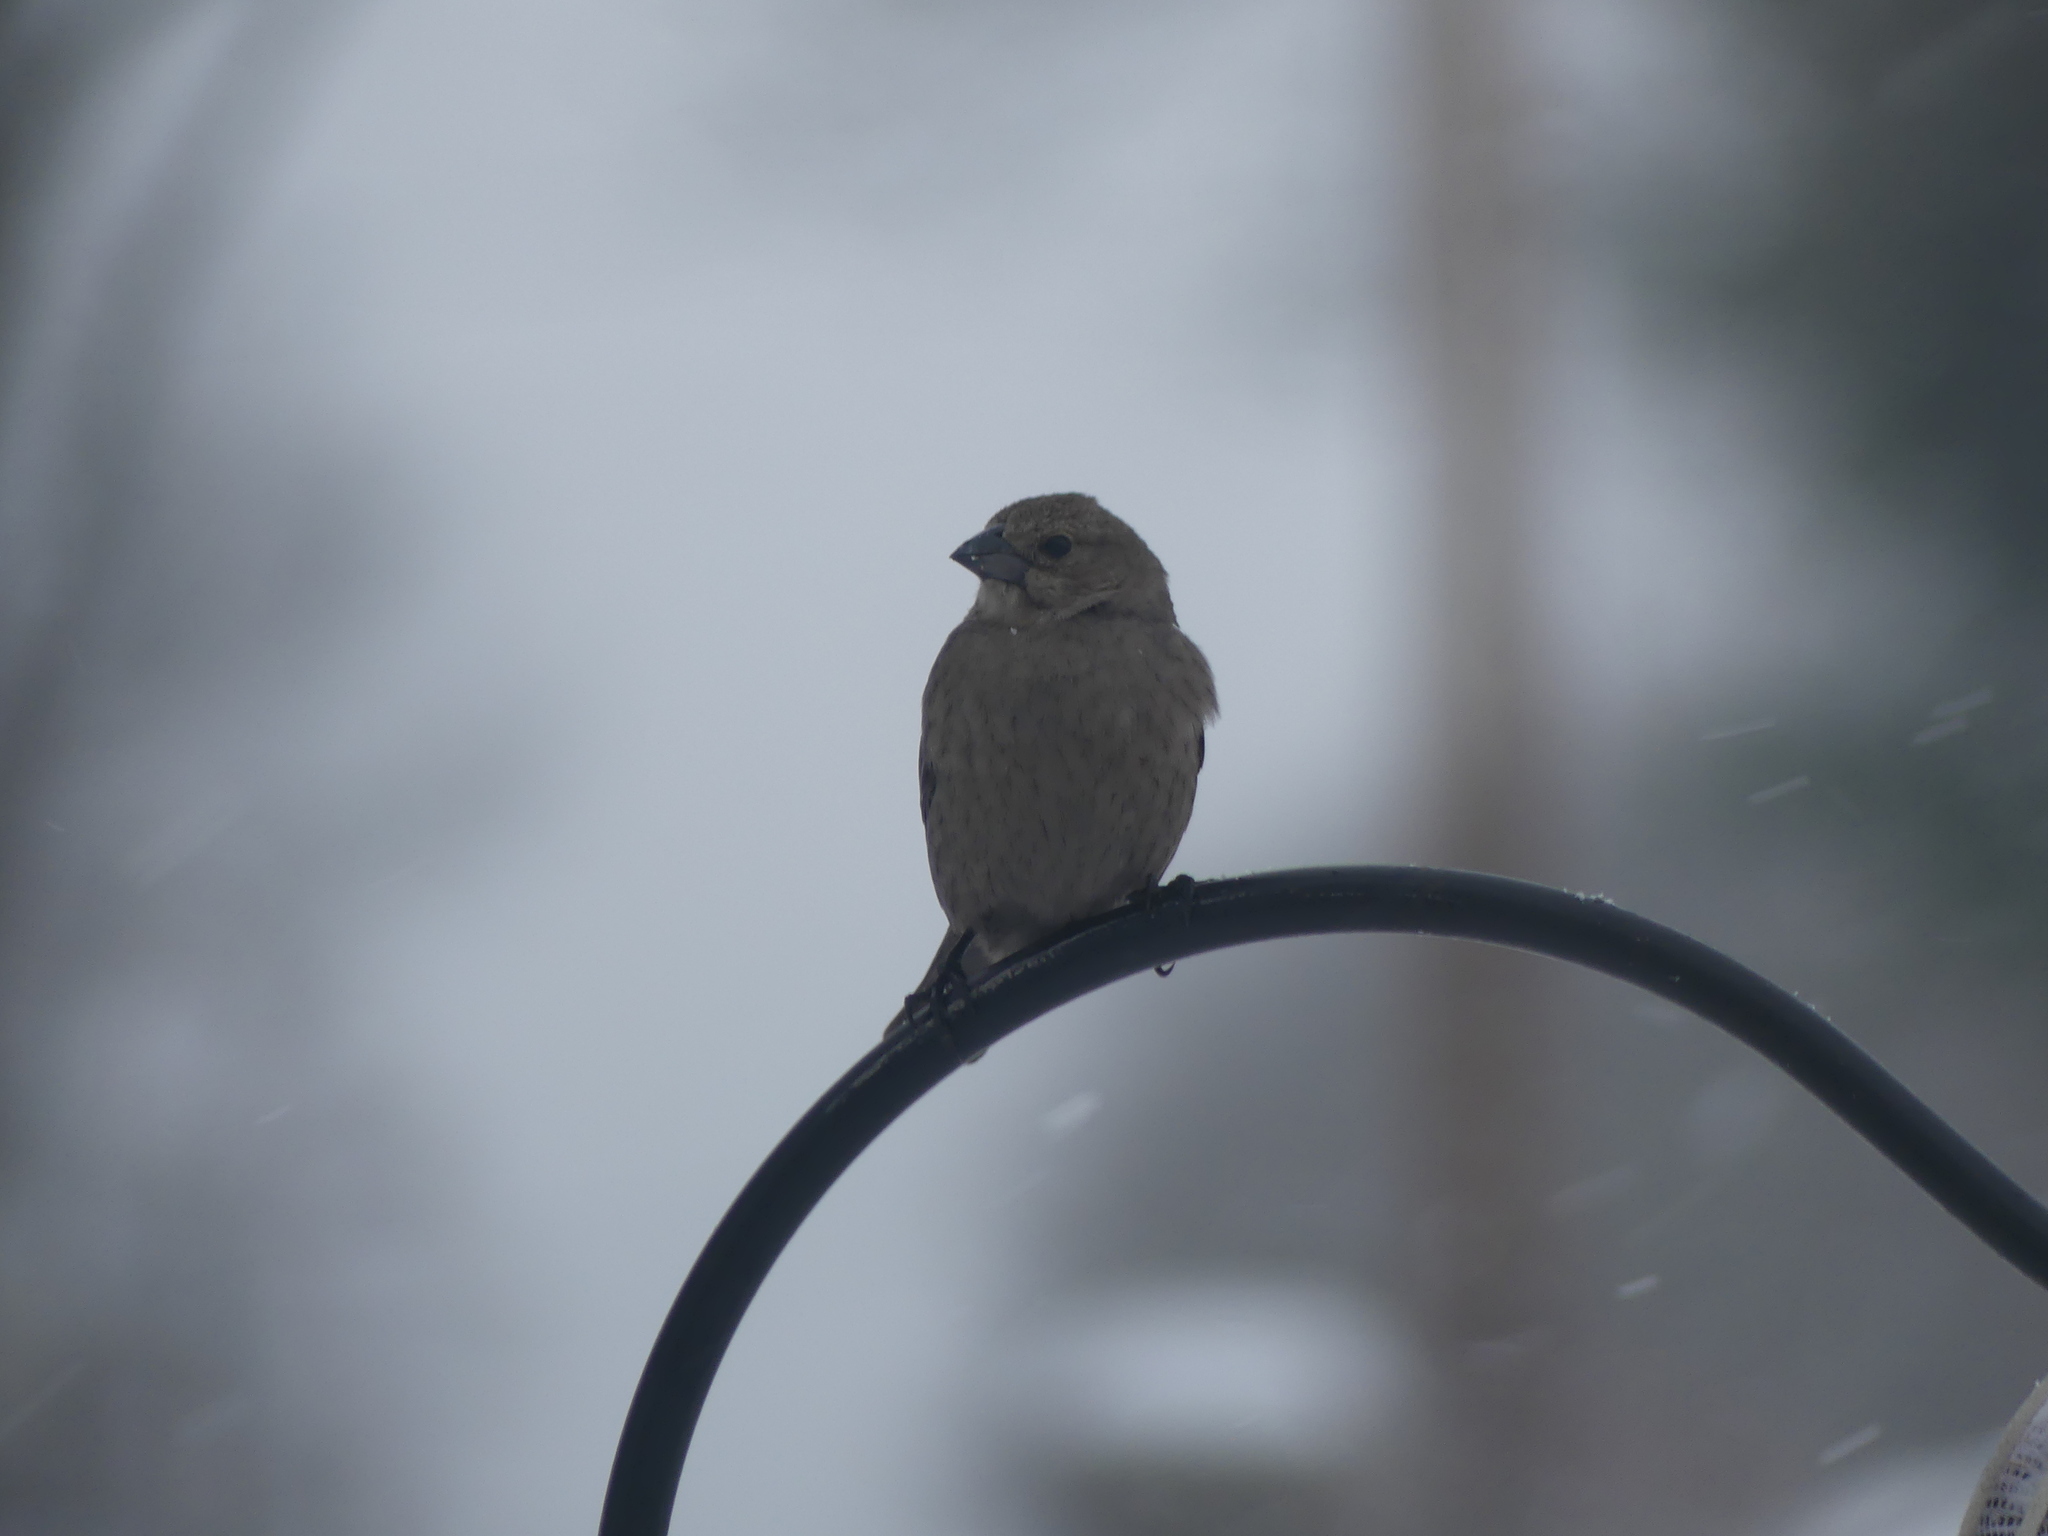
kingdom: Animalia
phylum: Chordata
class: Aves
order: Passeriformes
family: Icteridae
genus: Molothrus
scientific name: Molothrus ater
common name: Brown-headed cowbird
